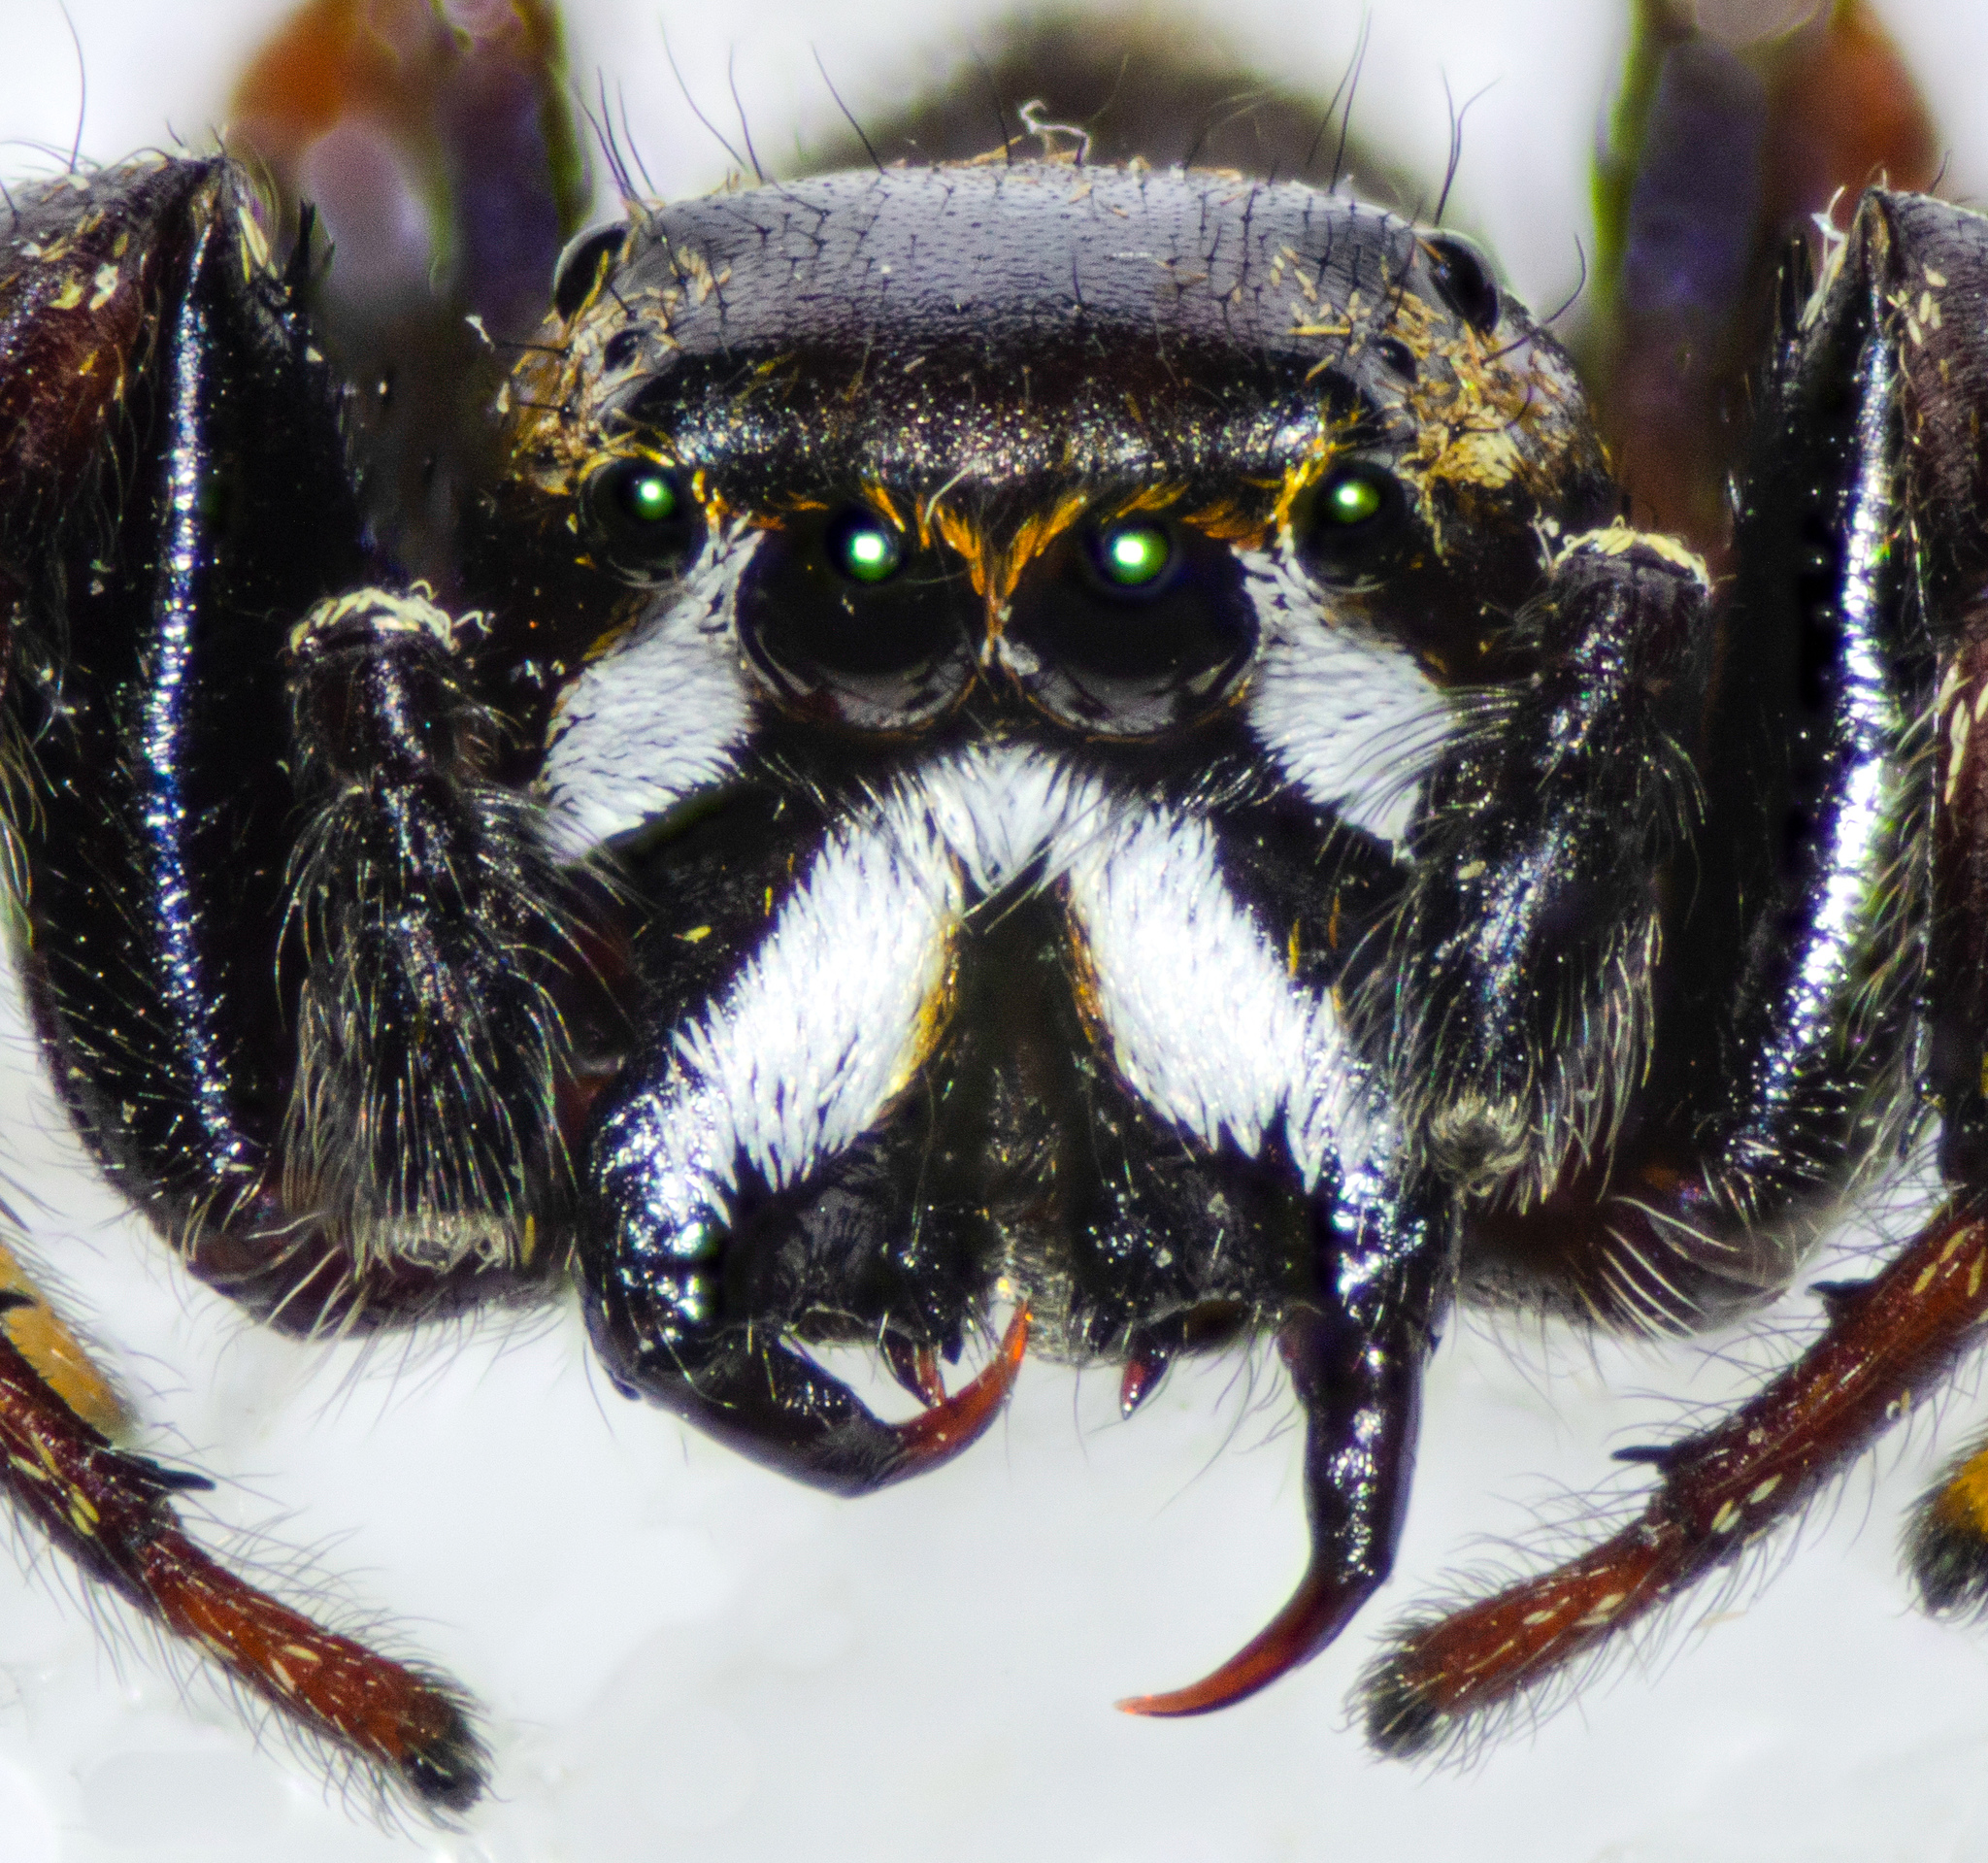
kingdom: Animalia
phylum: Arthropoda
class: Arachnida
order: Araneae
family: Salticidae
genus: Metaphidippus
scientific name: Metaphidippus manni
